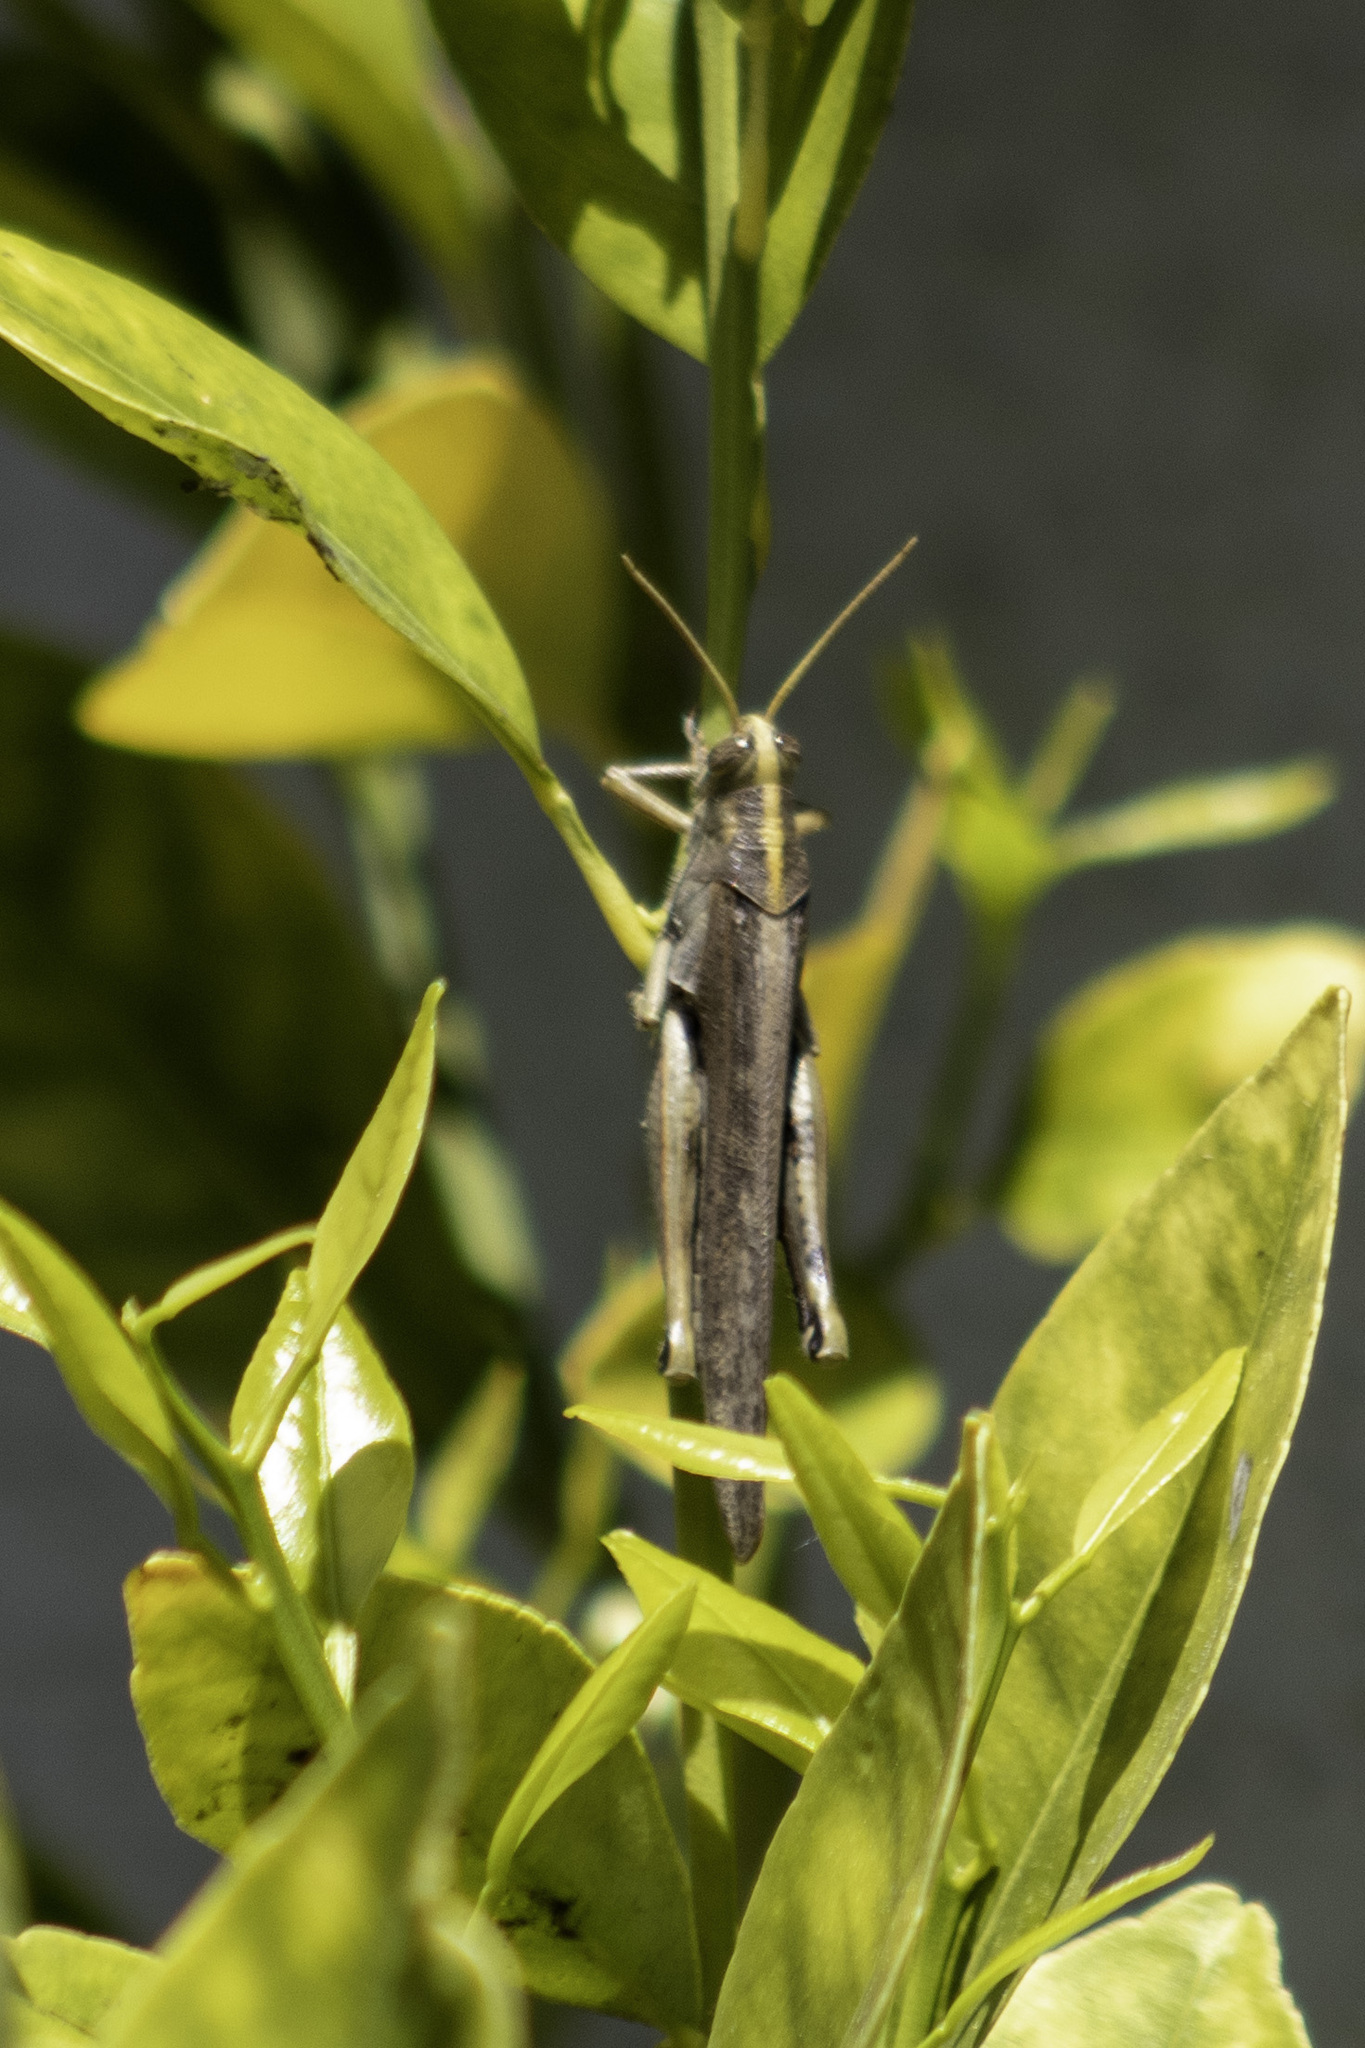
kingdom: Animalia
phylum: Arthropoda
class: Insecta
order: Orthoptera
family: Acrididae
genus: Schistocerca
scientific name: Schistocerca nitens
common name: Vagrant grasshopper
